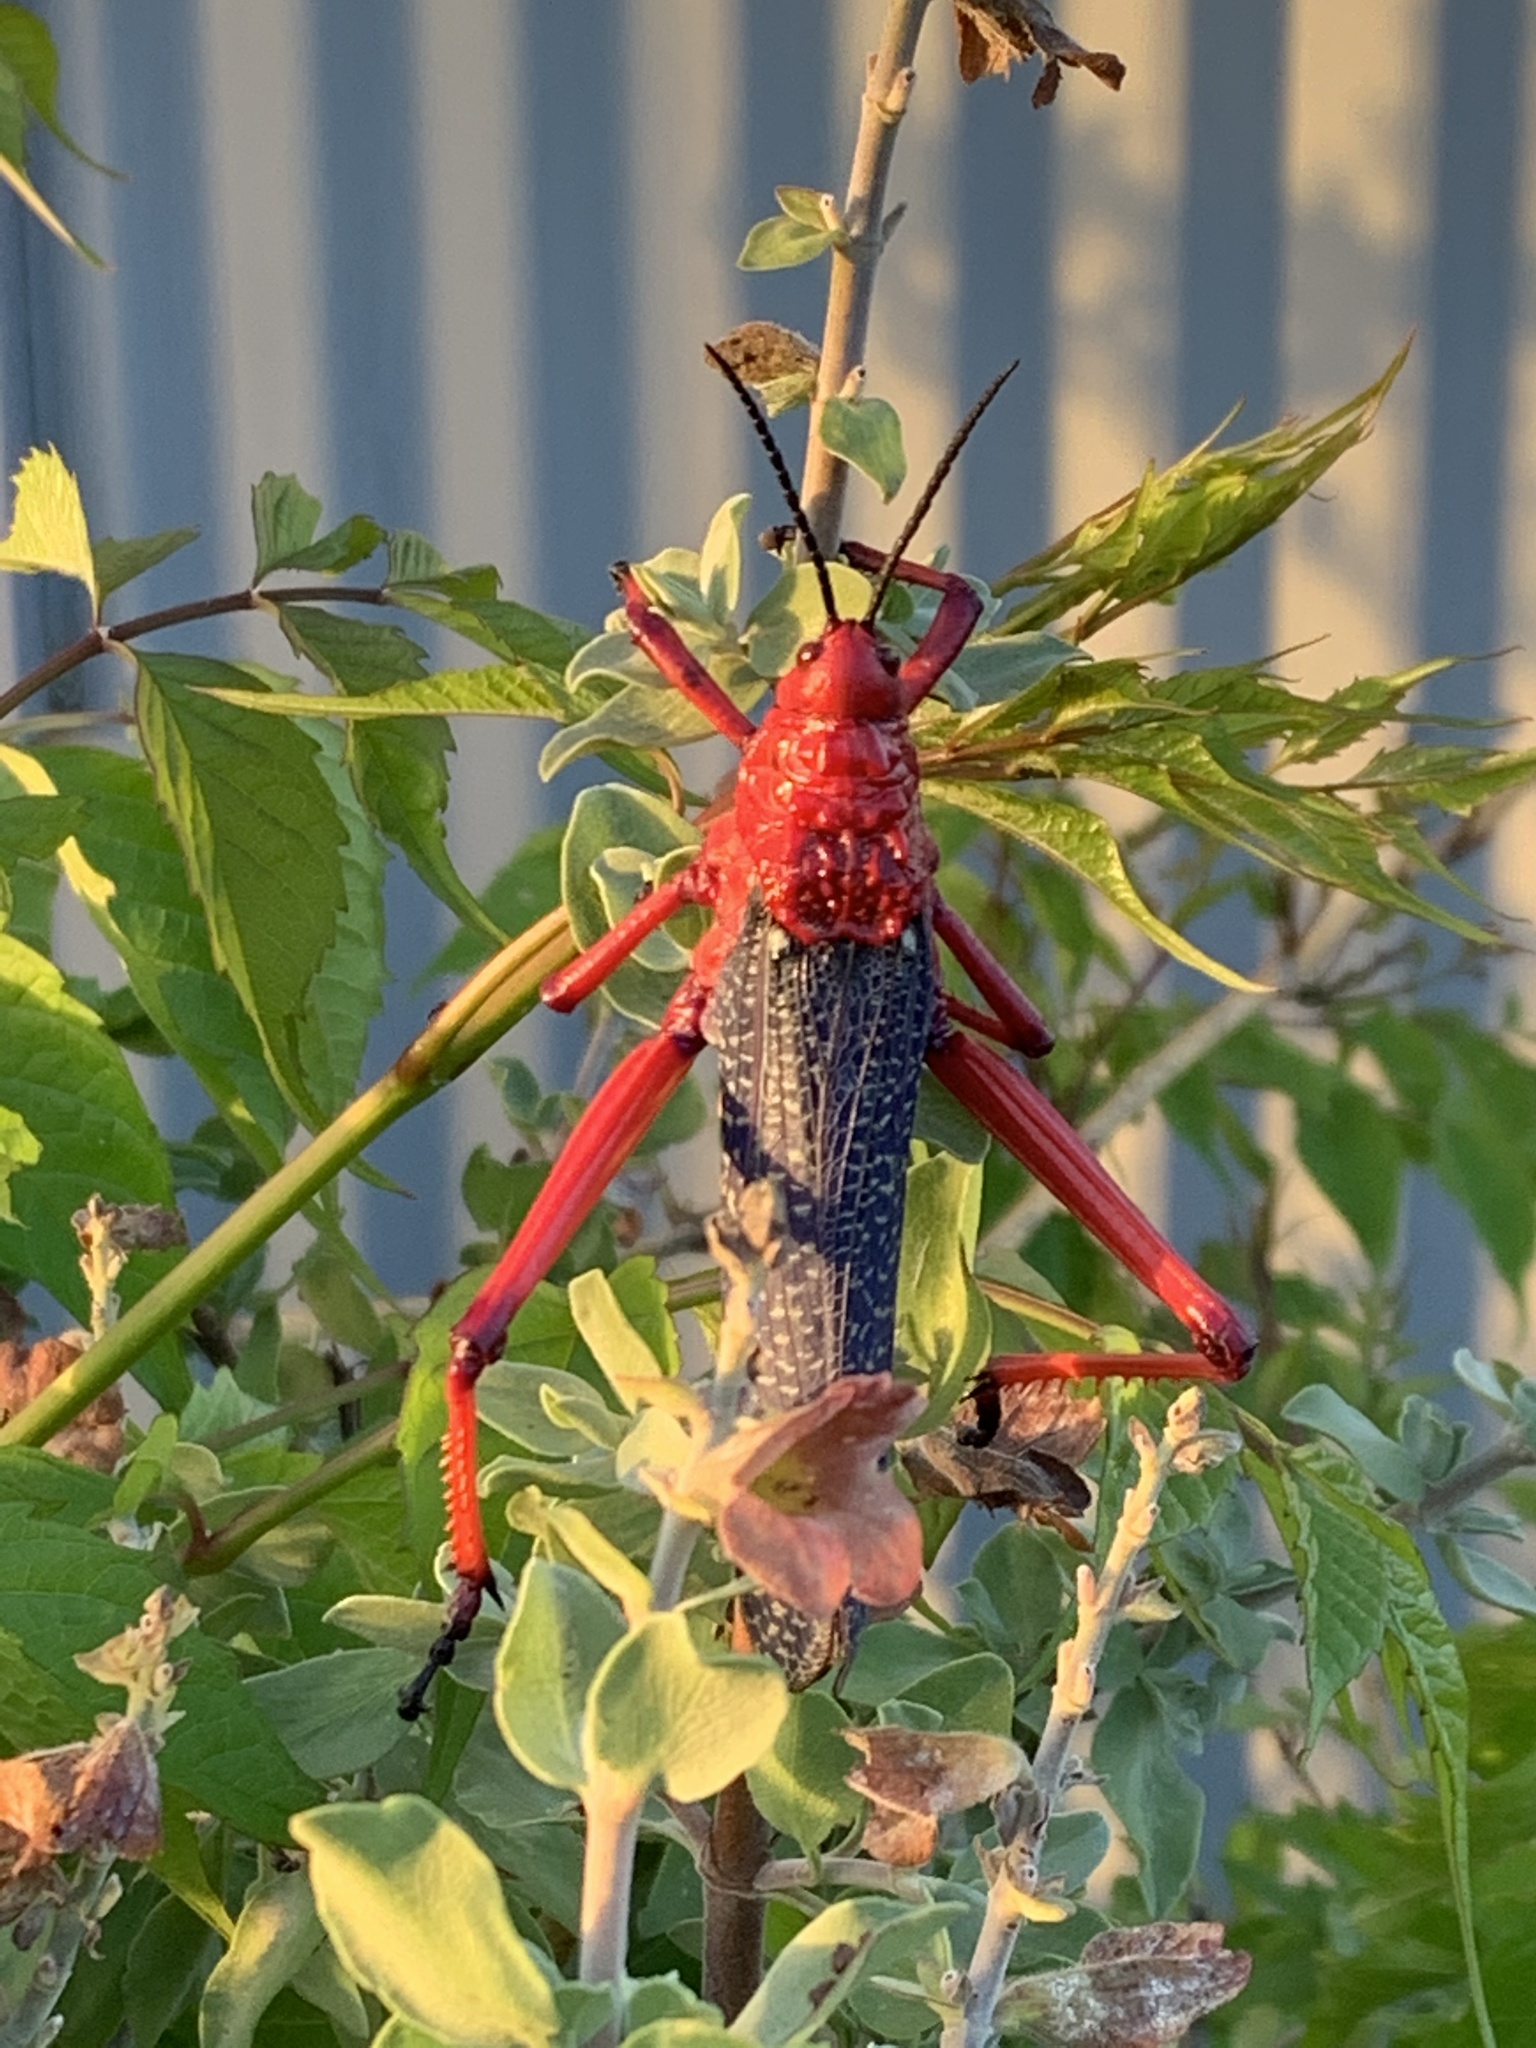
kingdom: Animalia
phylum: Arthropoda
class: Insecta
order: Orthoptera
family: Pyrgomorphidae
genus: Phymateus
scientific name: Phymateus morbillosus
